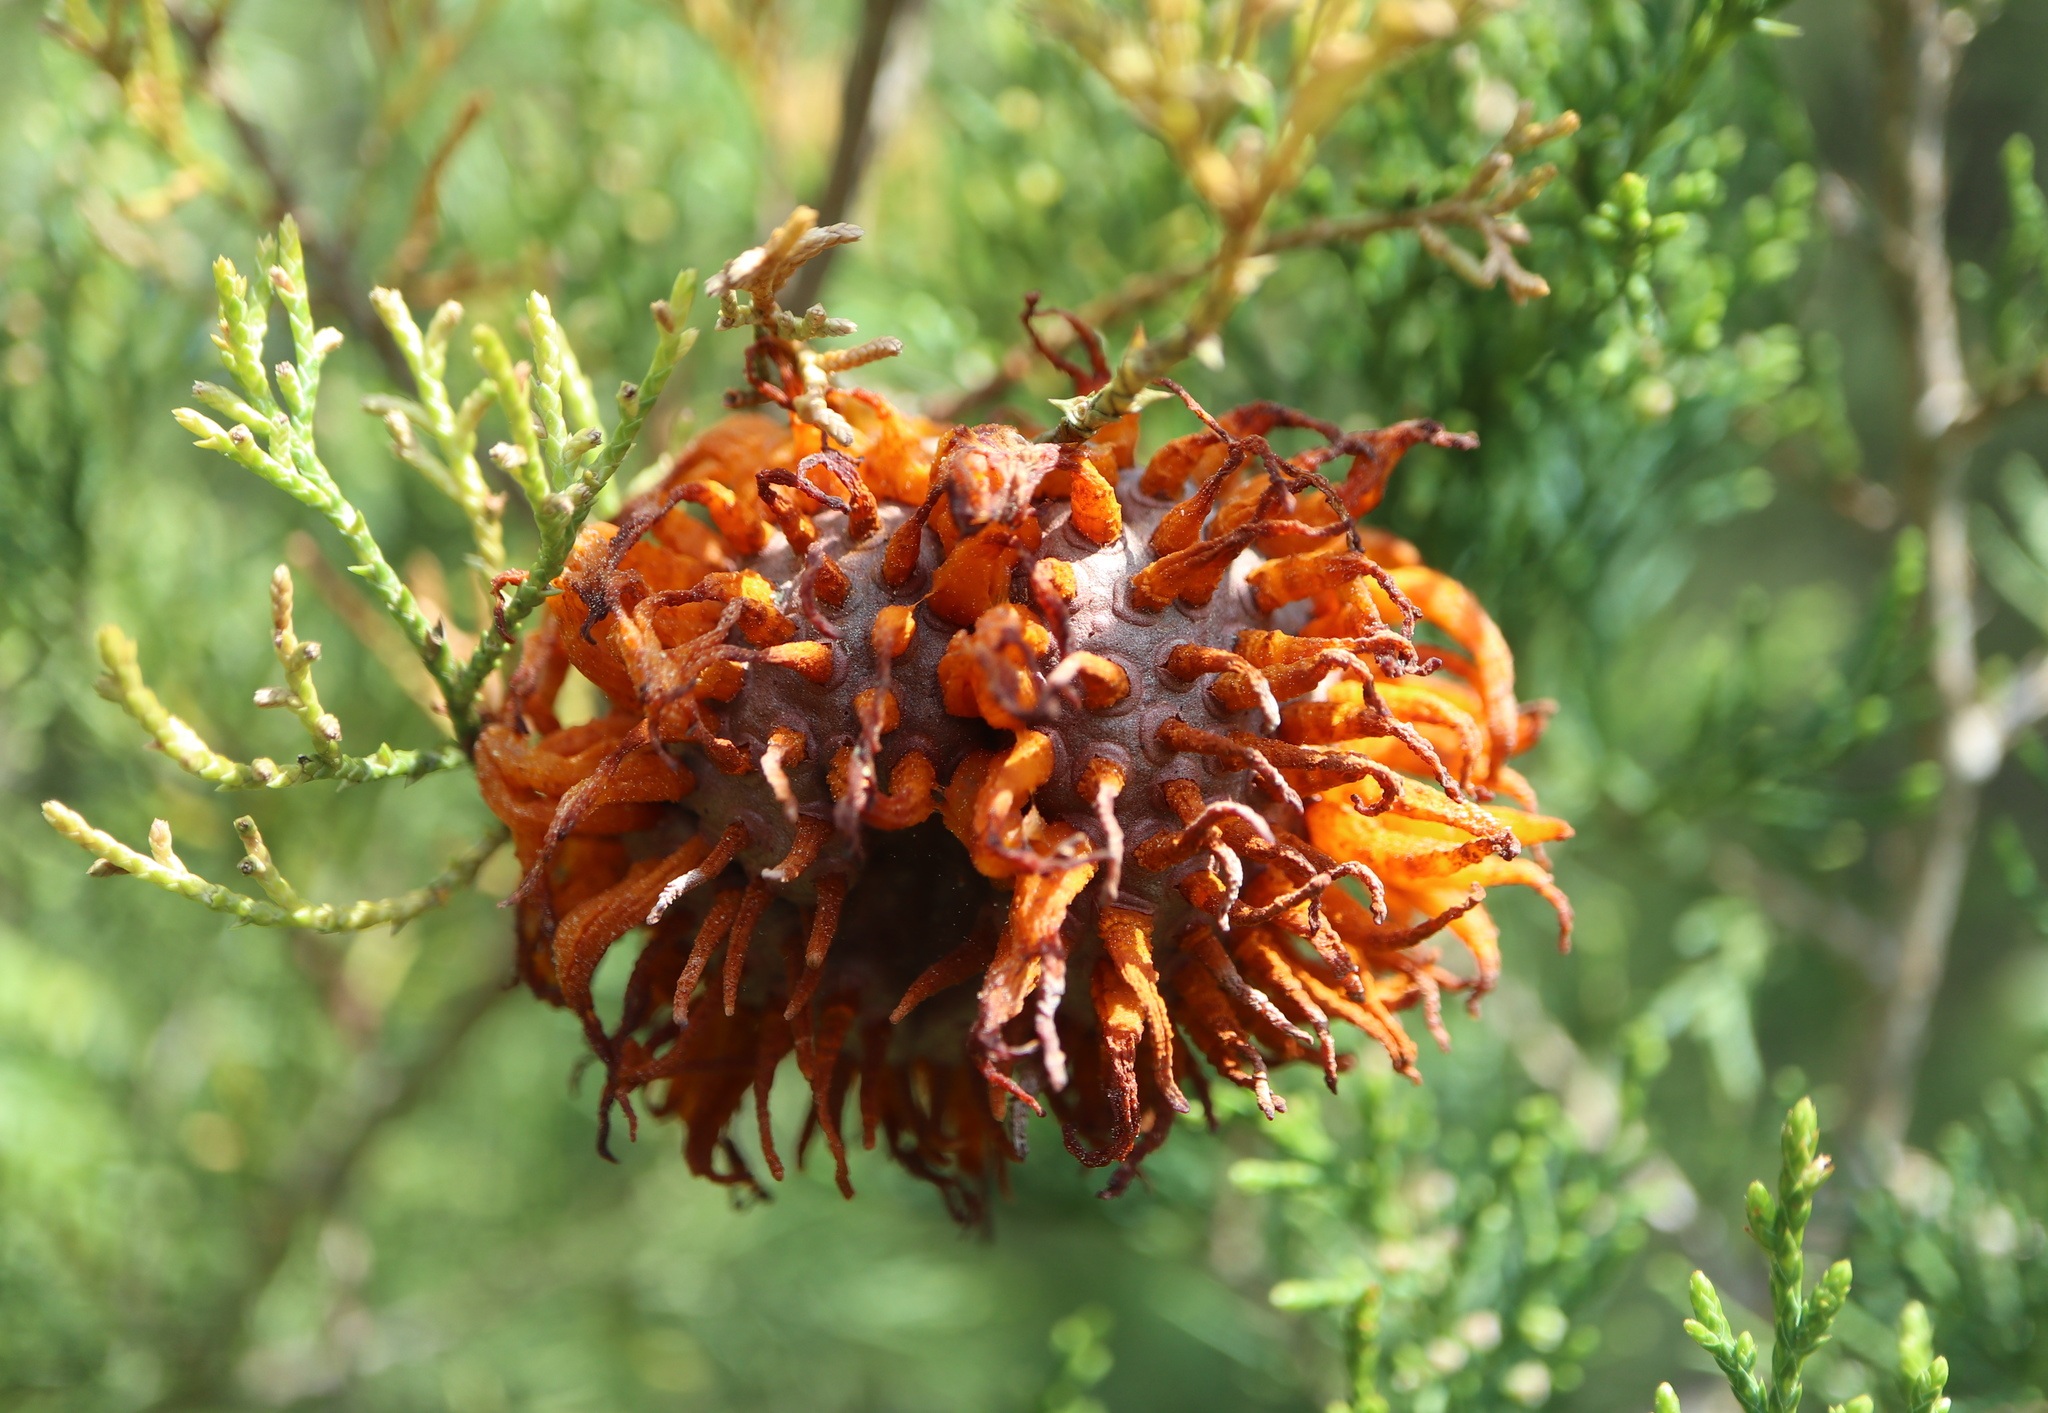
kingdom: Fungi
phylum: Basidiomycota
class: Pucciniomycetes
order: Pucciniales
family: Gymnosporangiaceae
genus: Gymnosporangium
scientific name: Gymnosporangium juniperi-virginianae
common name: Juniper-apple rust
